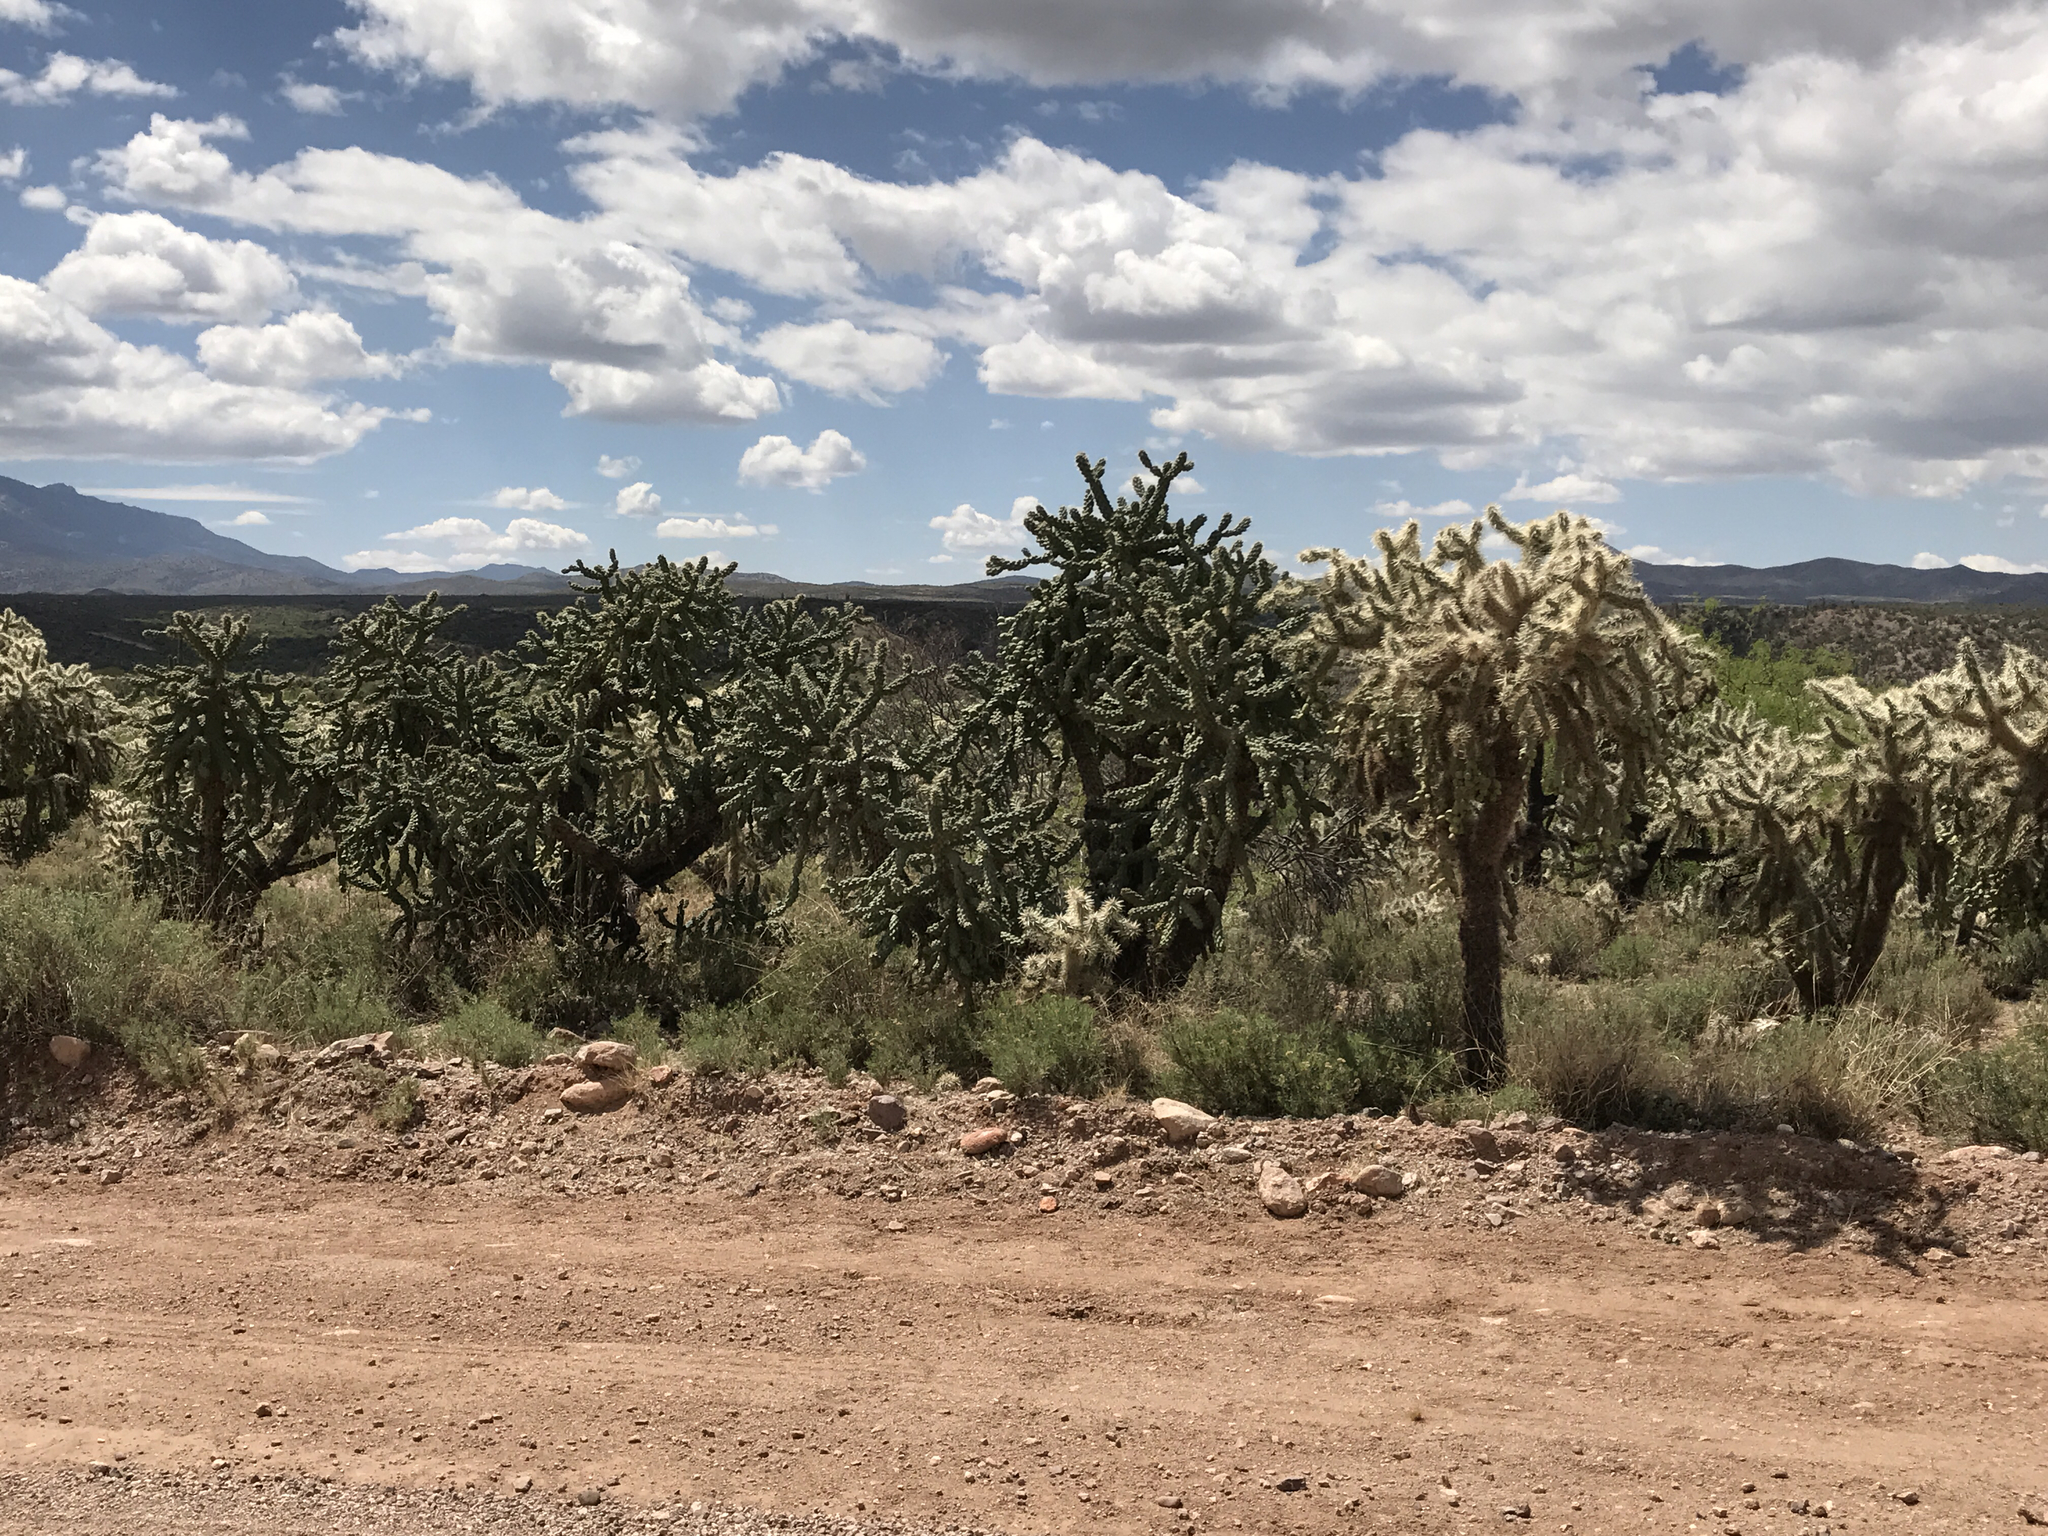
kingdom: Plantae
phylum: Tracheophyta
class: Magnoliopsida
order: Caryophyllales
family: Cactaceae
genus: Cylindropuntia
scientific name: Cylindropuntia fulgida
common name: Jumping cholla
